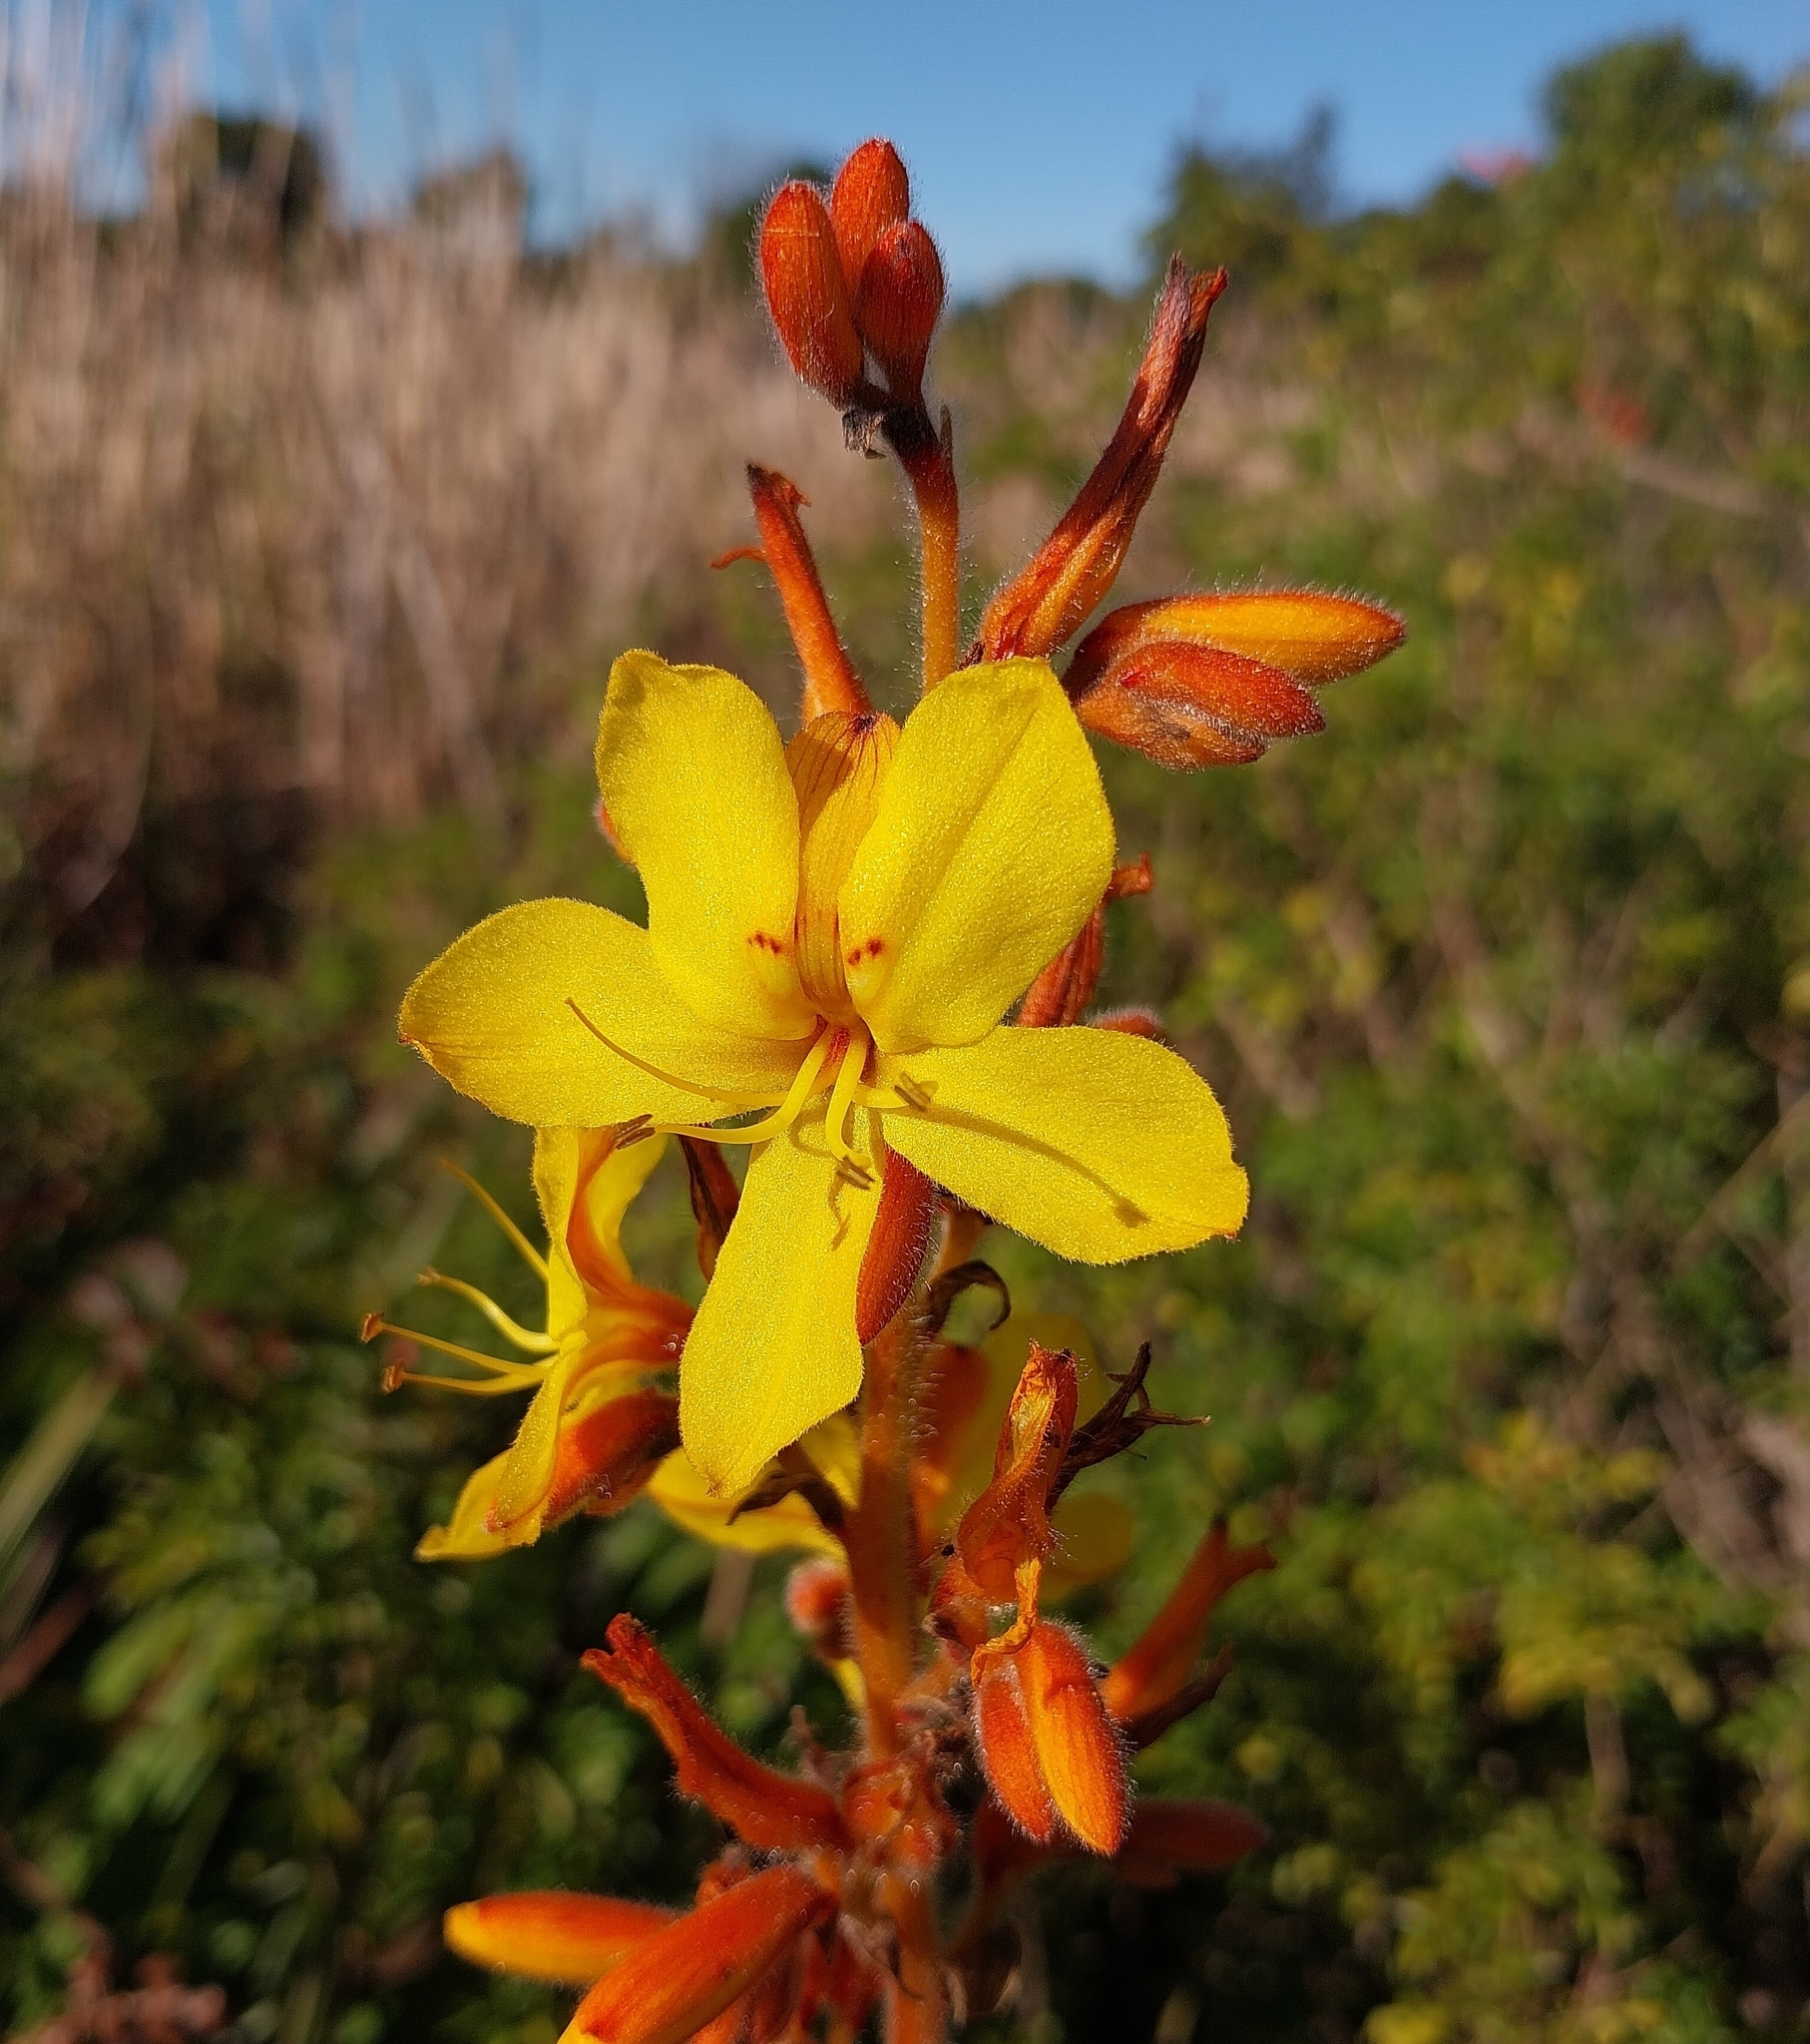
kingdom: Plantae
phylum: Tracheophyta
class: Liliopsida
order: Commelinales
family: Haemodoraceae
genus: Wachendorfia
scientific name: Wachendorfia thyrsiflora
